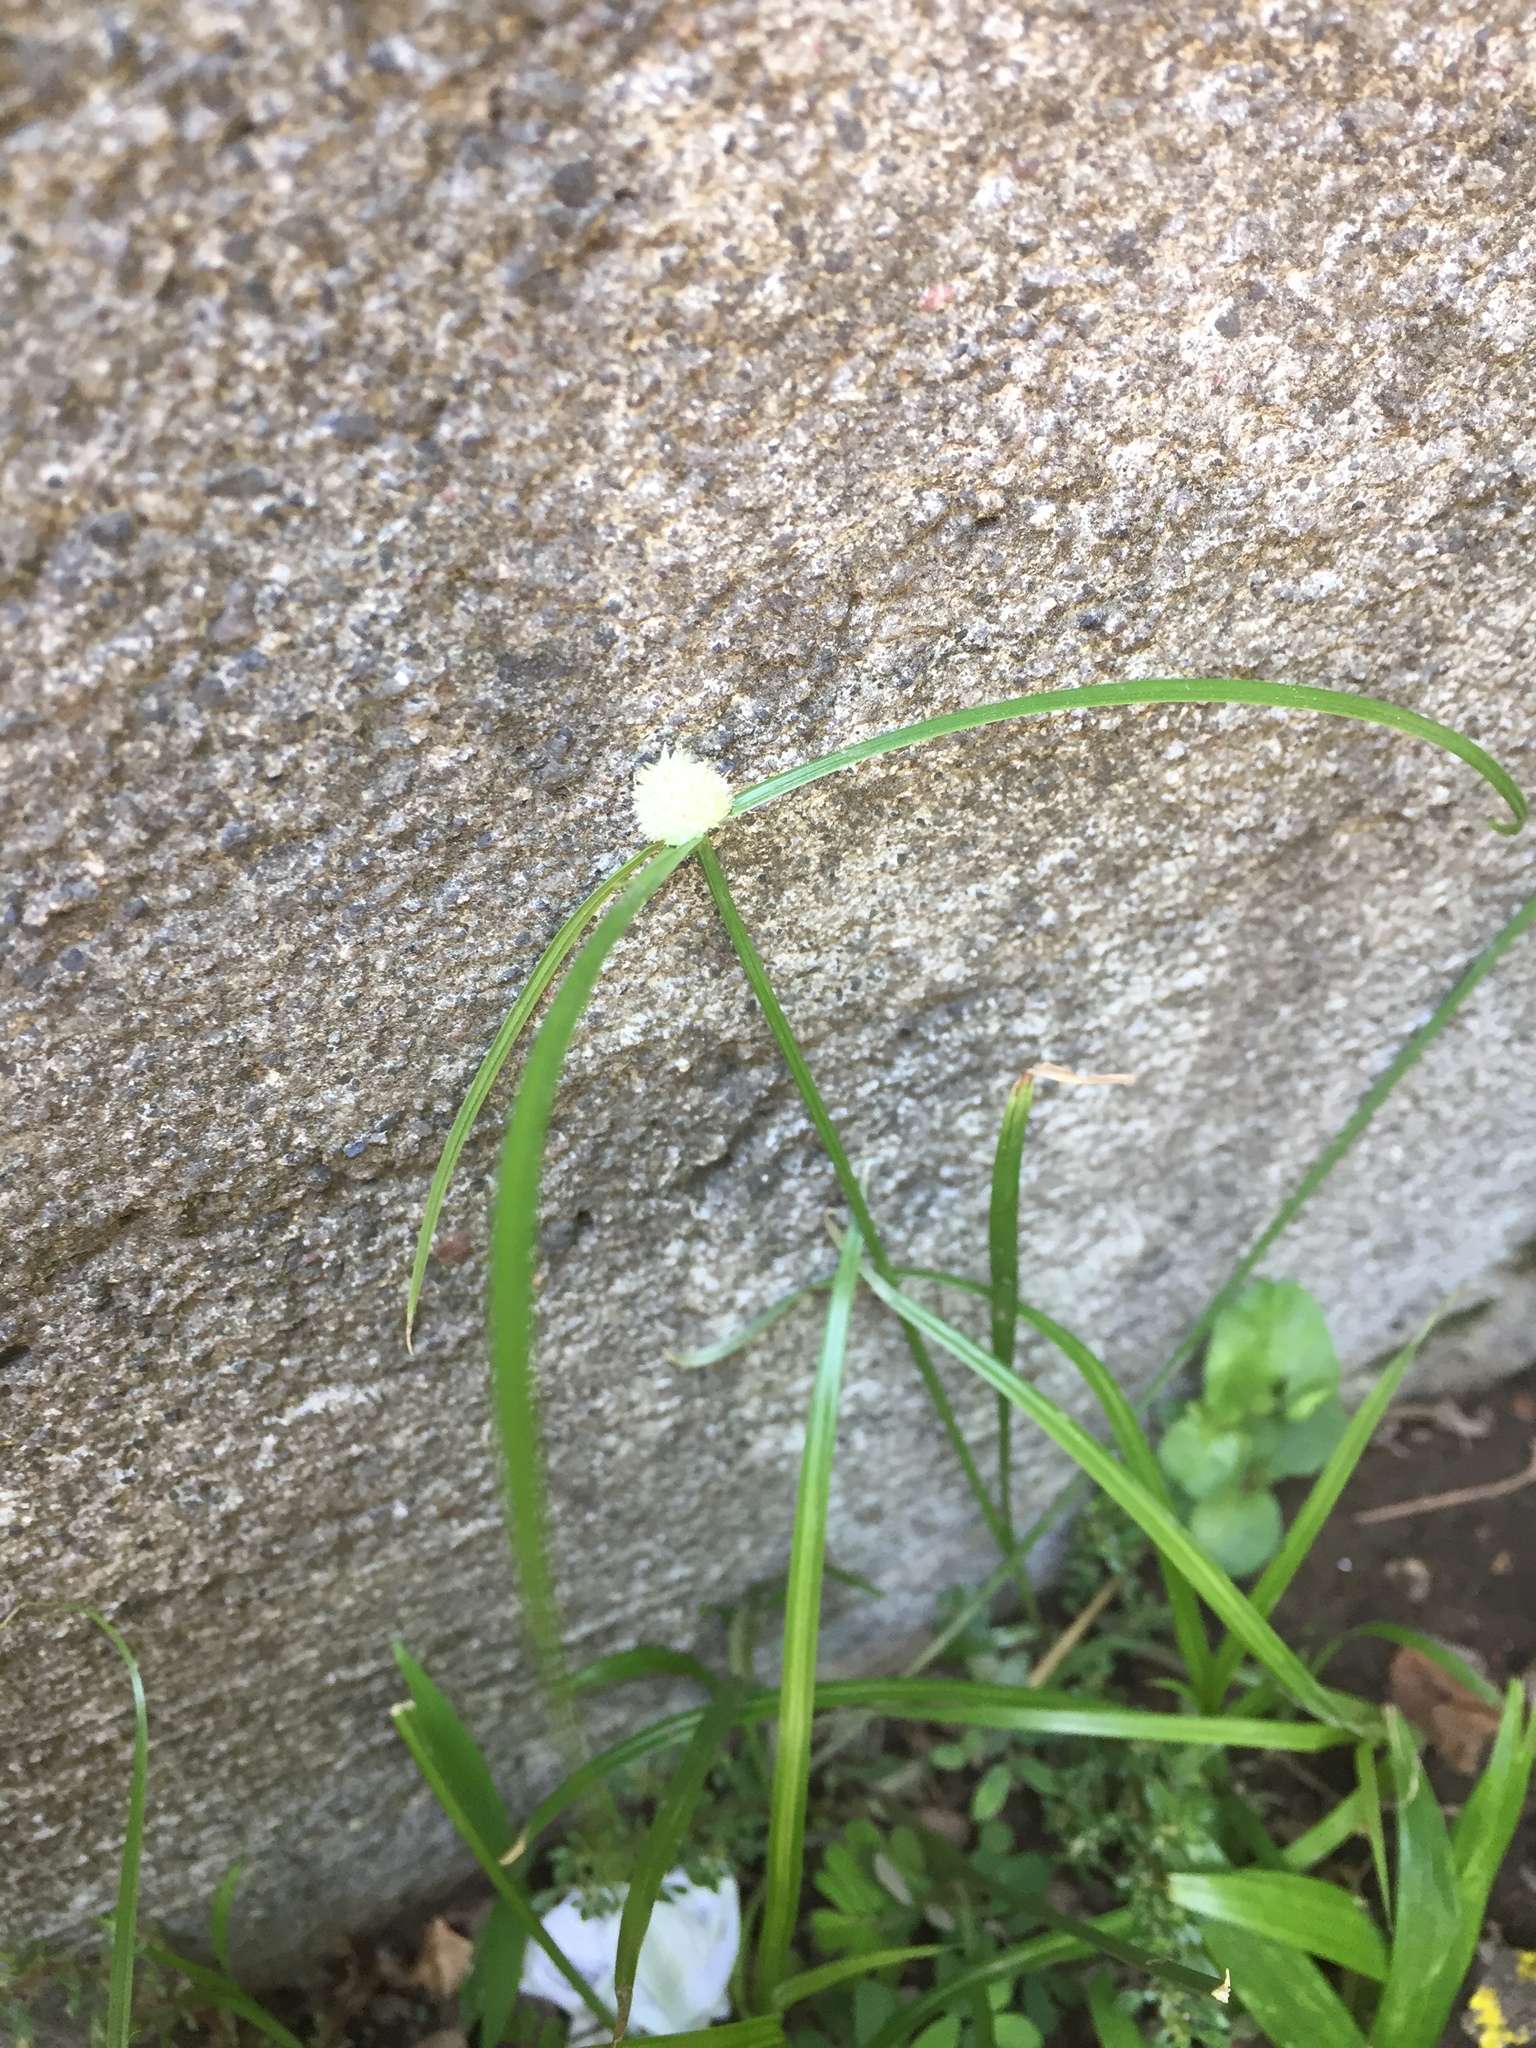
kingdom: Plantae
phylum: Tracheophyta
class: Liliopsida
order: Poales
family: Cyperaceae
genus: Cyperus
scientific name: Cyperus mindorensis
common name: Flatsedge
